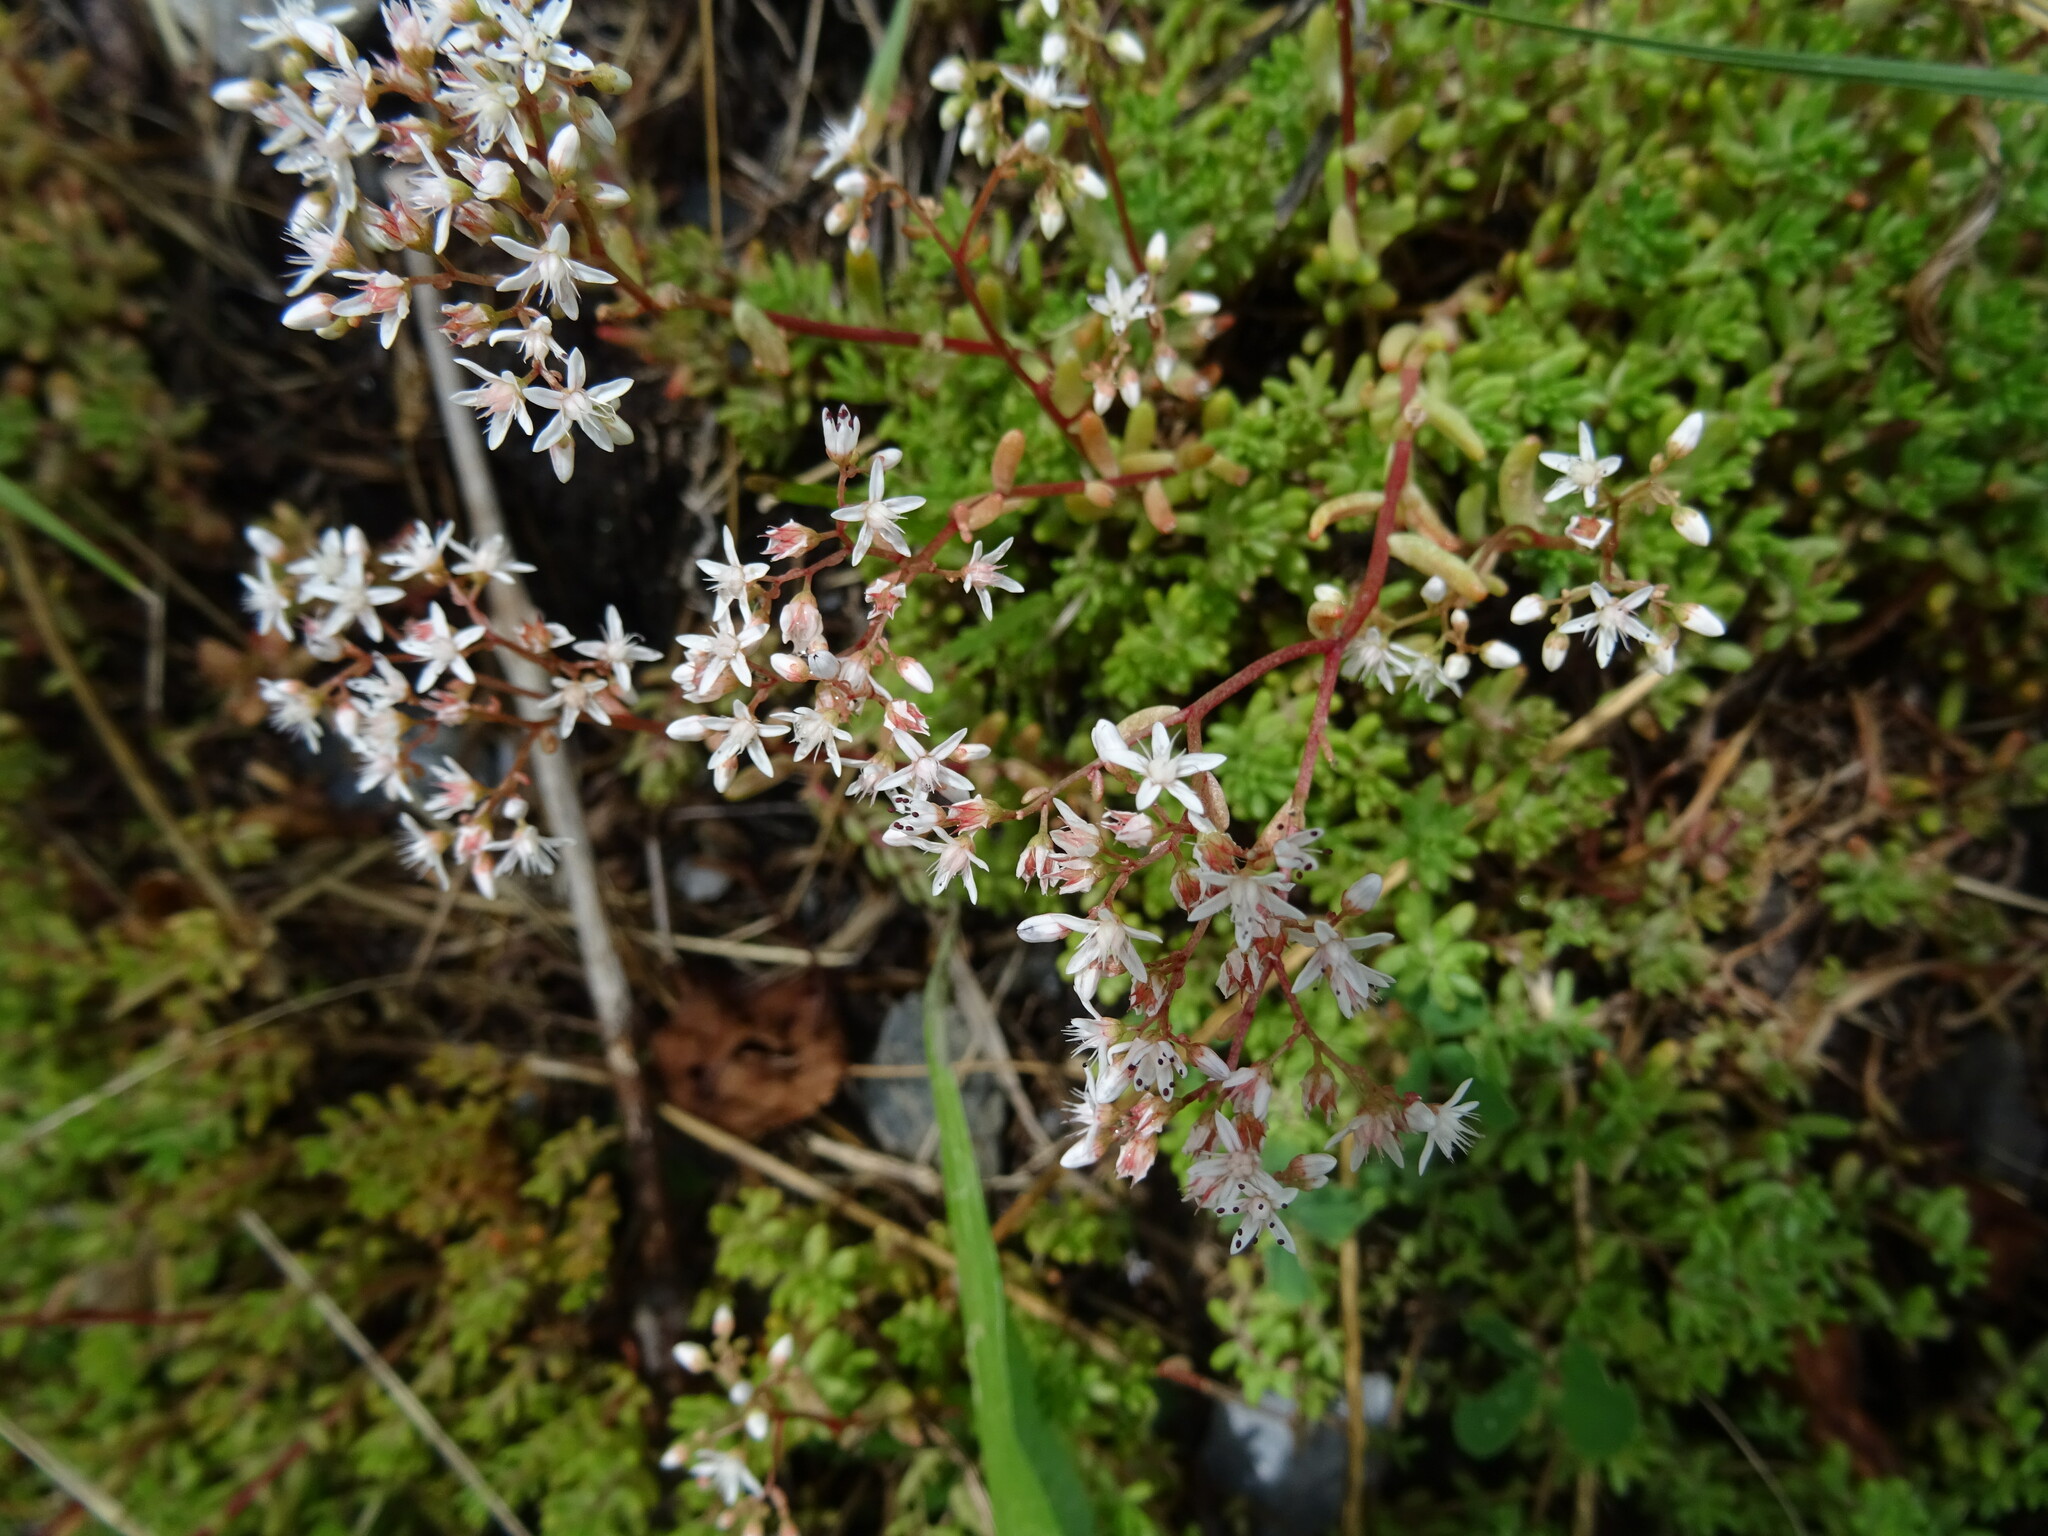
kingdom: Plantae
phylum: Tracheophyta
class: Magnoliopsida
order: Saxifragales
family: Crassulaceae
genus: Sedum
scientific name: Sedum album
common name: White stonecrop
